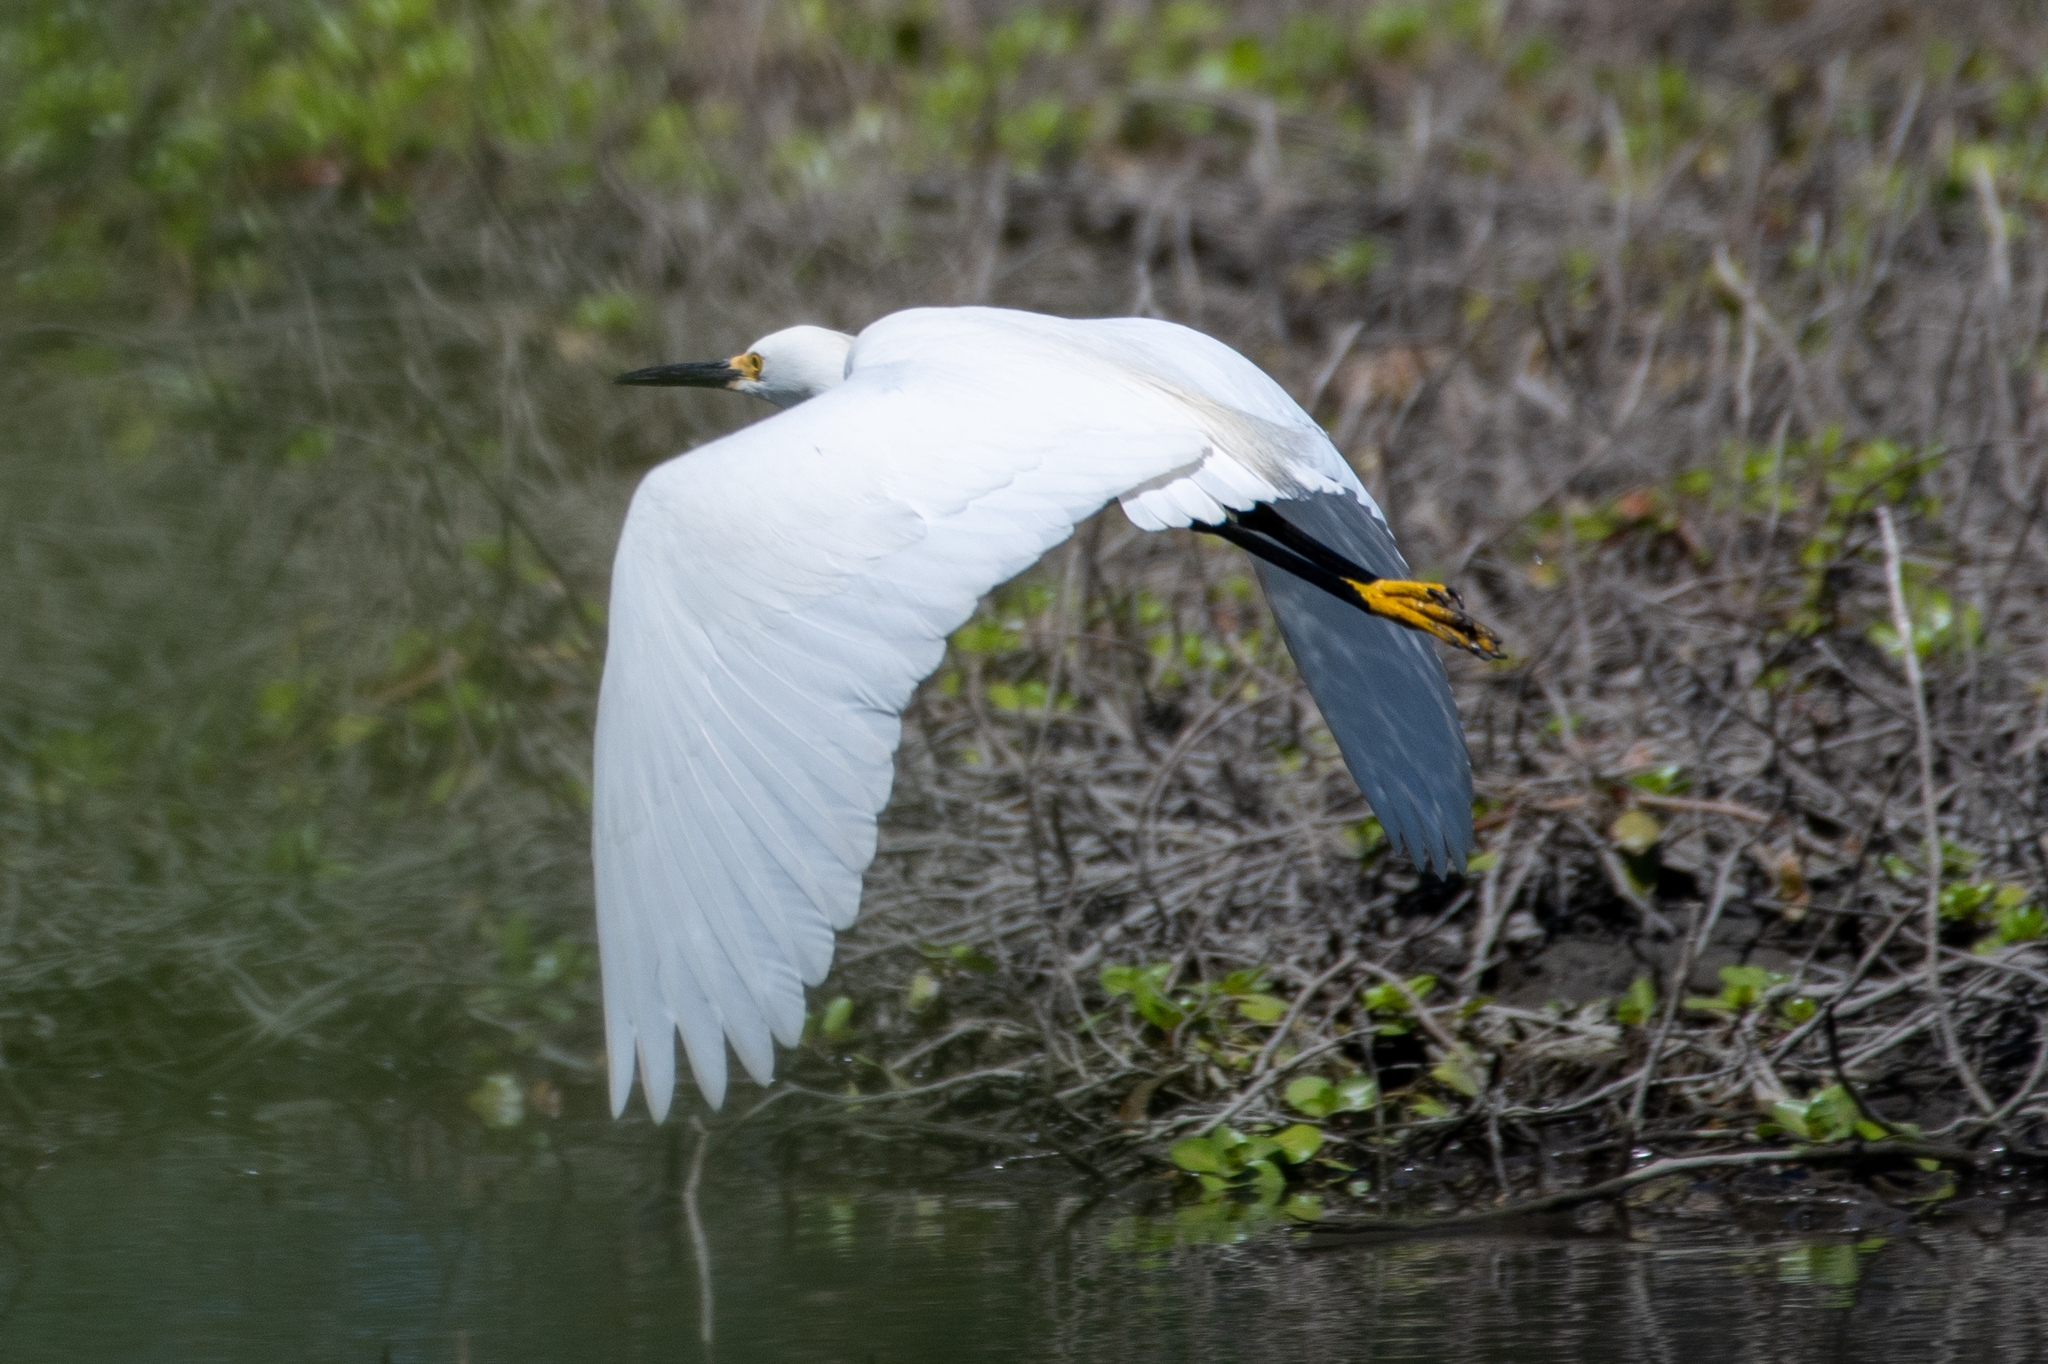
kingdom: Animalia
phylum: Chordata
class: Aves
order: Pelecaniformes
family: Ardeidae
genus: Egretta
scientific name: Egretta thula
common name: Snowy egret
